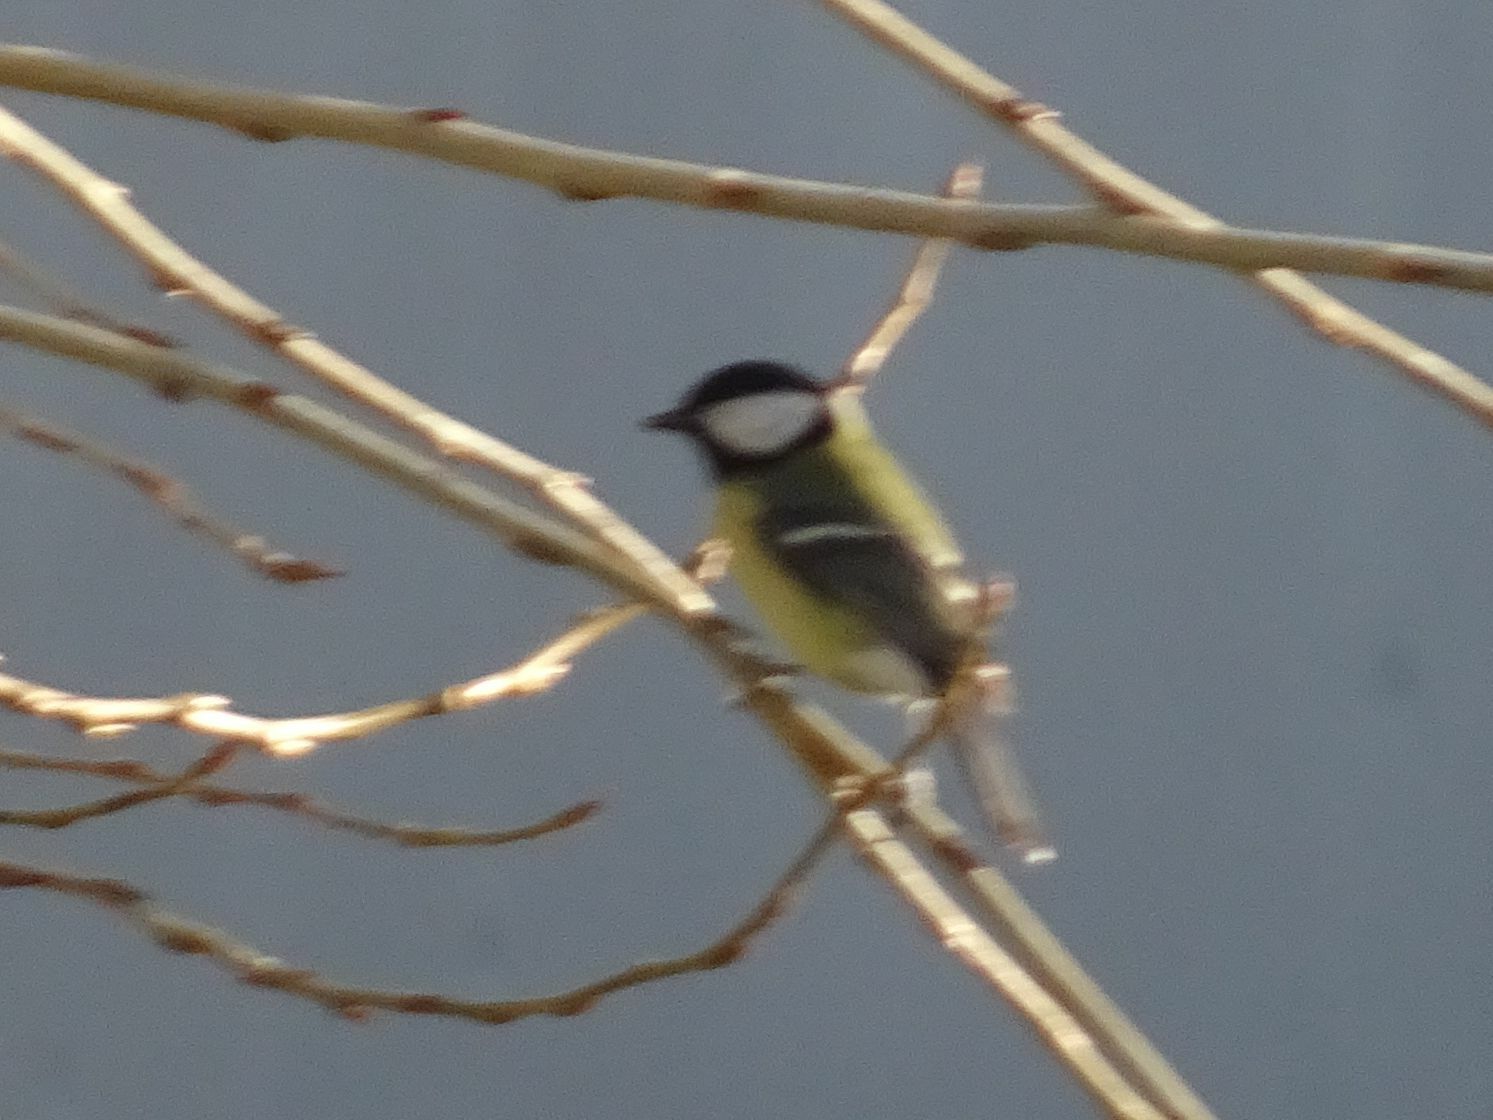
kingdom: Animalia
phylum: Chordata
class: Aves
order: Passeriformes
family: Paridae
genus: Parus
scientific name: Parus major
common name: Great tit
